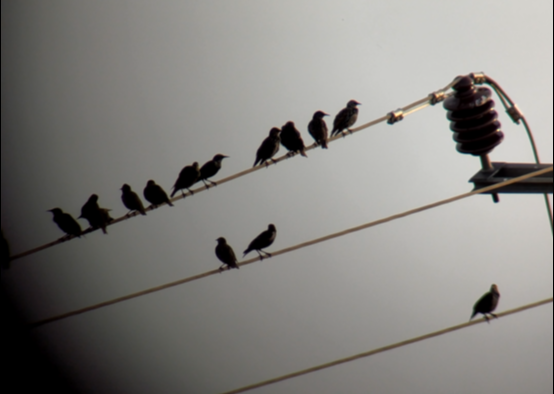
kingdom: Animalia
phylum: Chordata
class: Aves
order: Passeriformes
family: Sturnidae
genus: Sturnus
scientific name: Sturnus vulgaris
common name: Common starling
